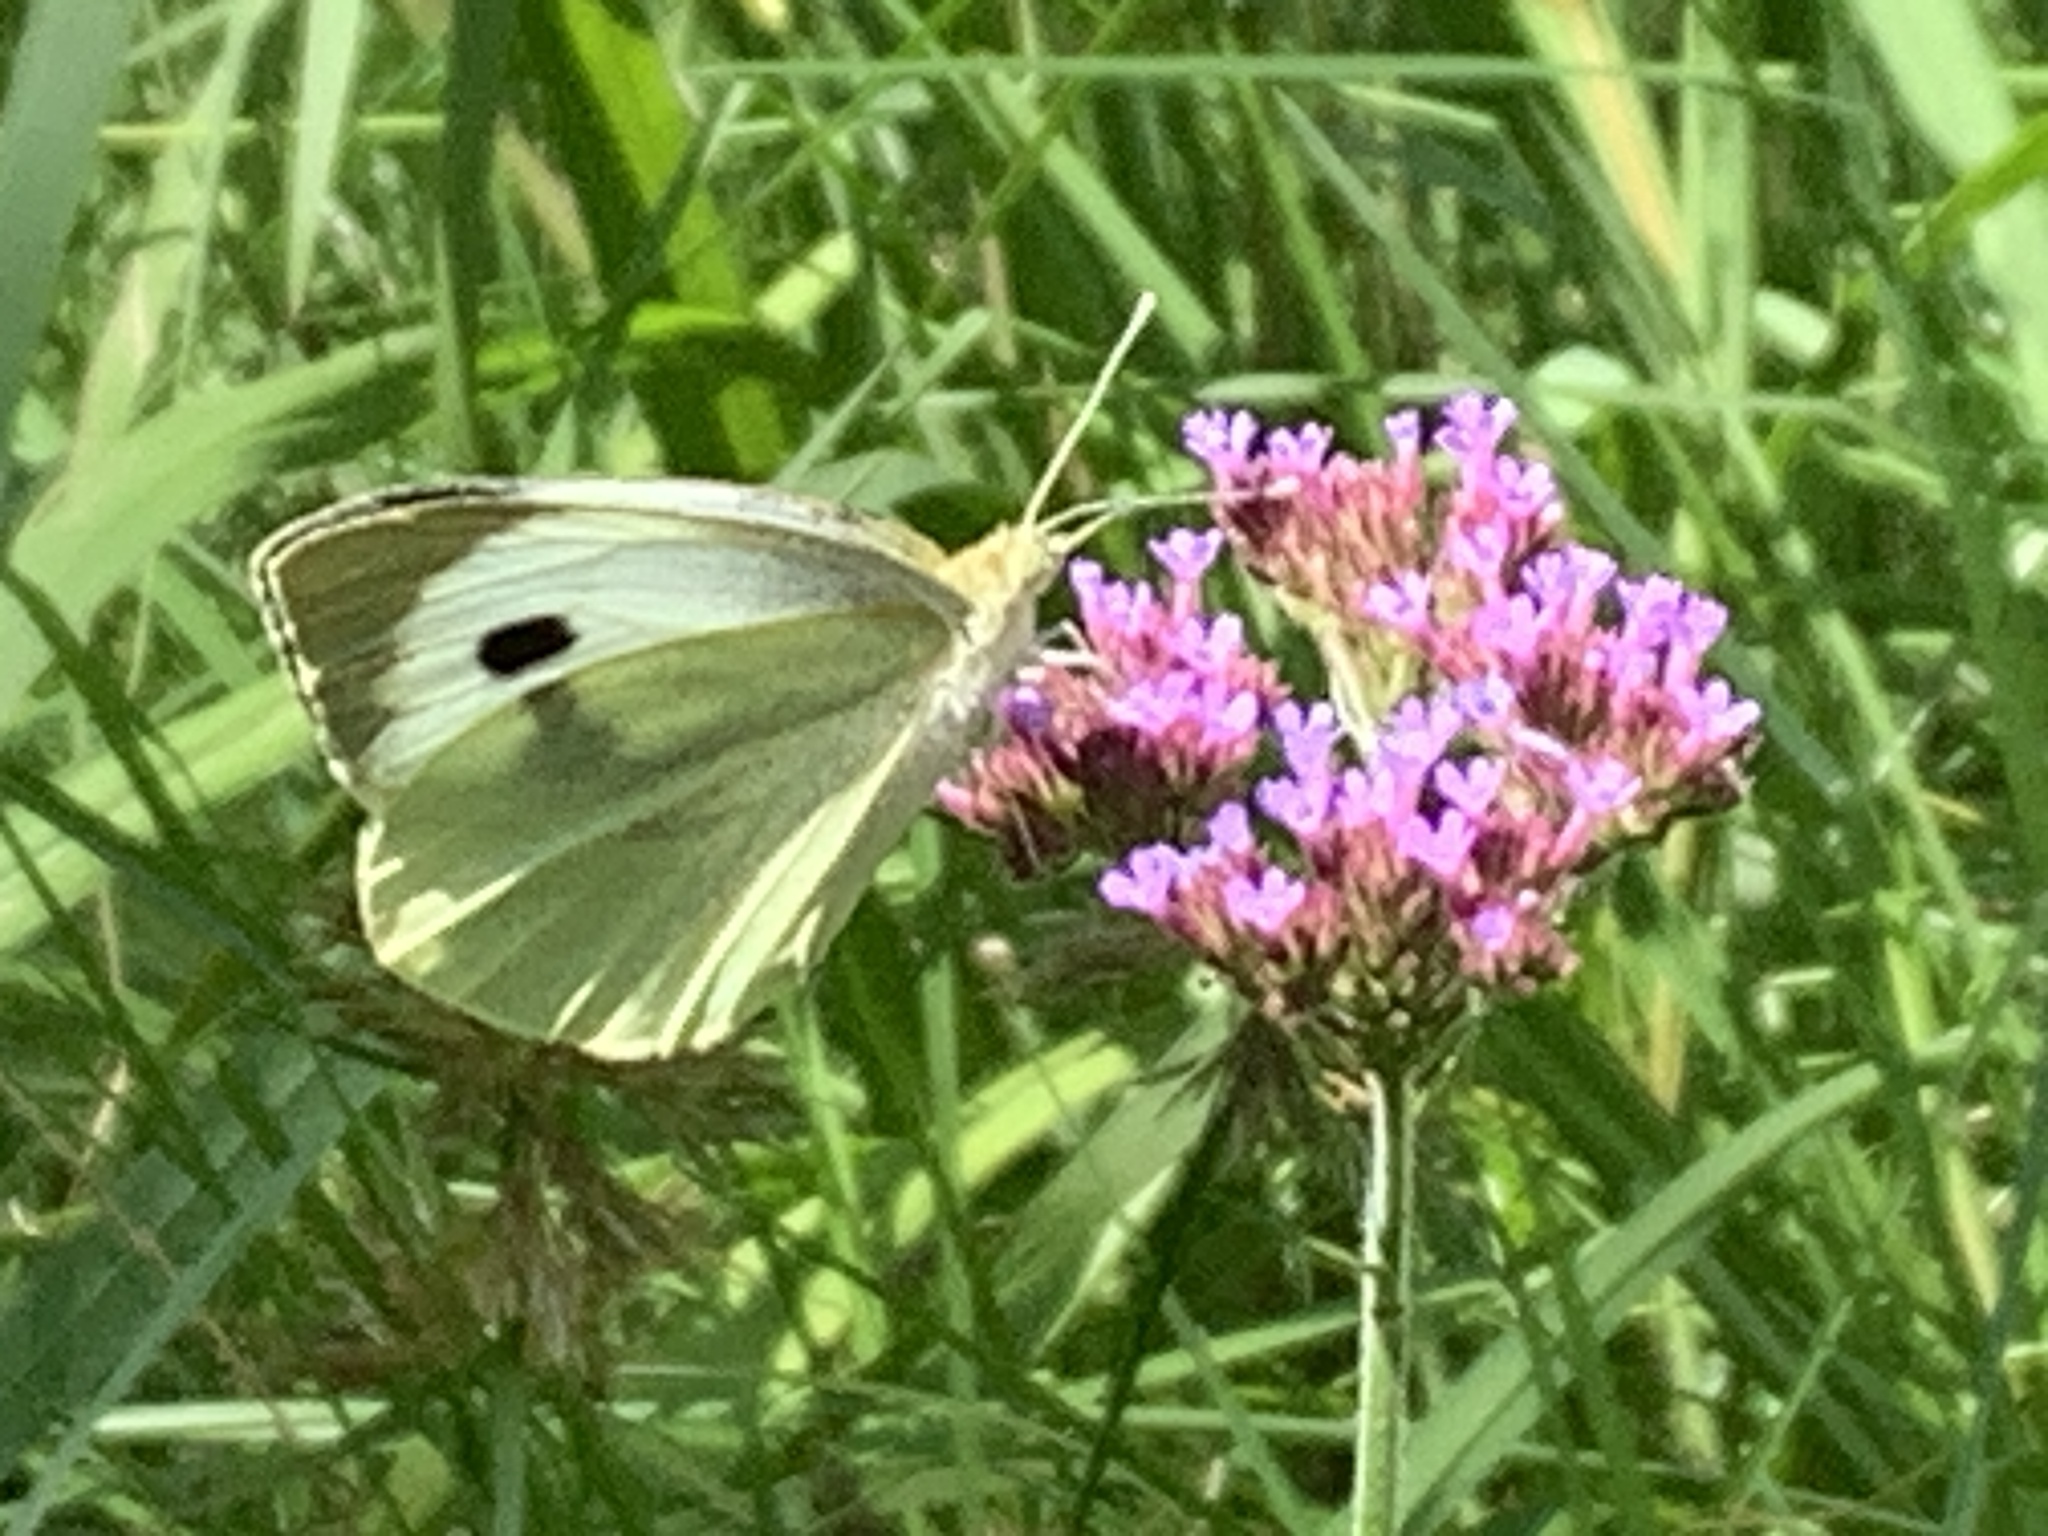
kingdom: Animalia
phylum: Arthropoda
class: Insecta
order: Lepidoptera
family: Pieridae
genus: Pieris
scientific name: Pieris brassicae
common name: Large white
